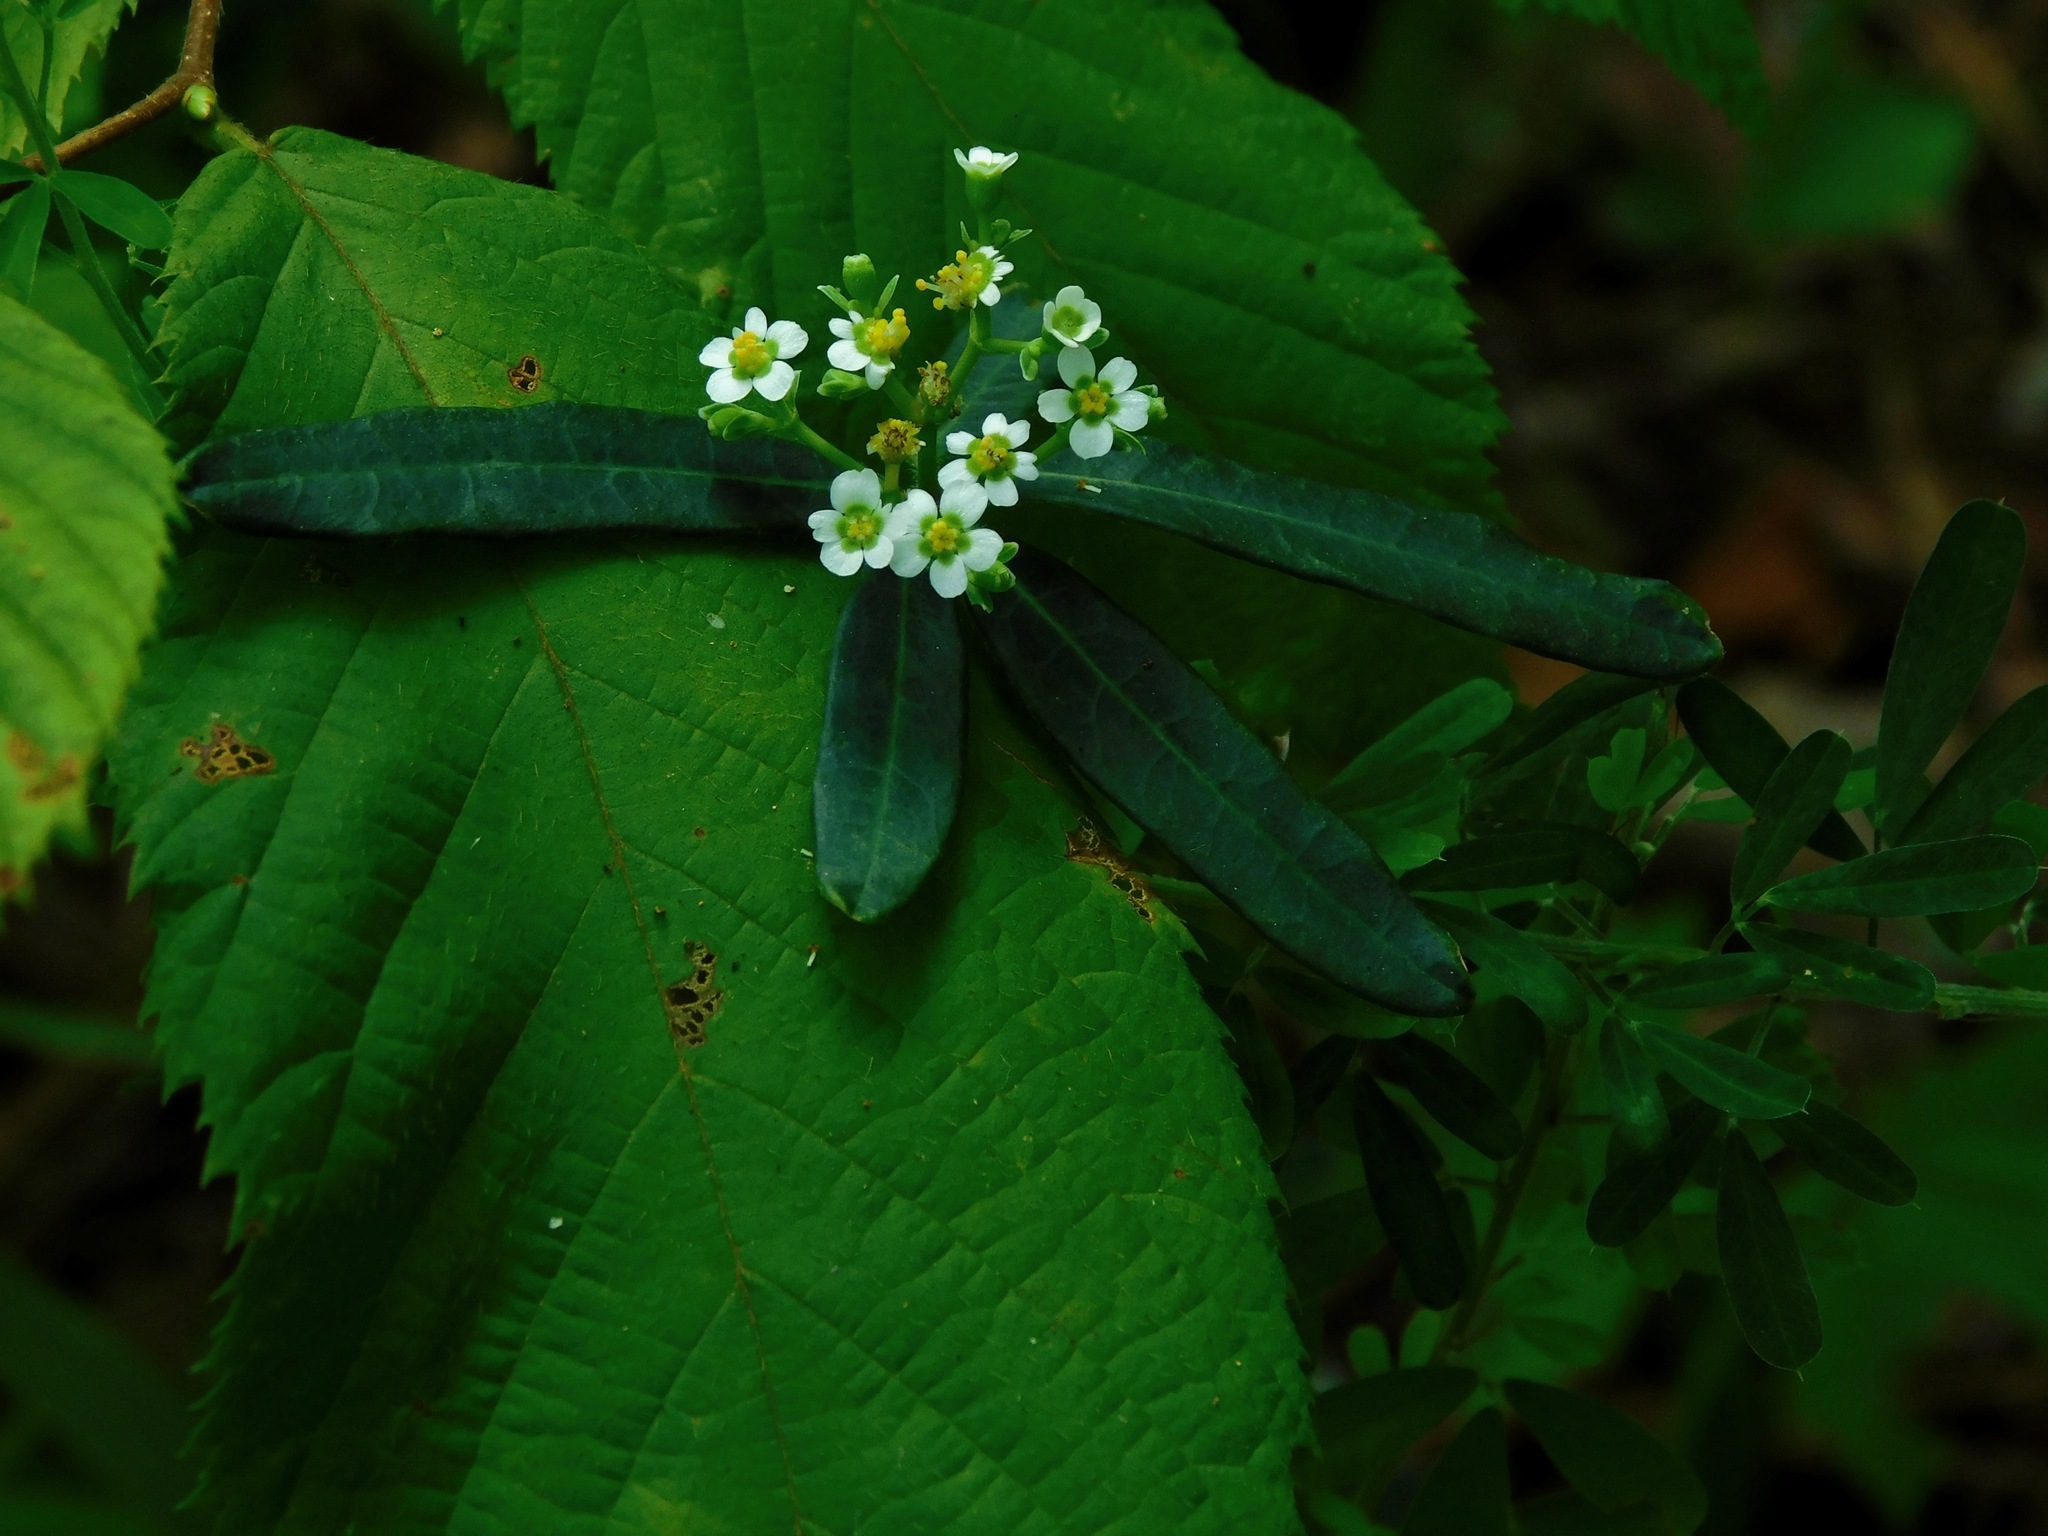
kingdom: Plantae
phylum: Tracheophyta
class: Magnoliopsida
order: Malpighiales
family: Euphorbiaceae
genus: Euphorbia
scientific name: Euphorbia corollata
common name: Flowering spurge
